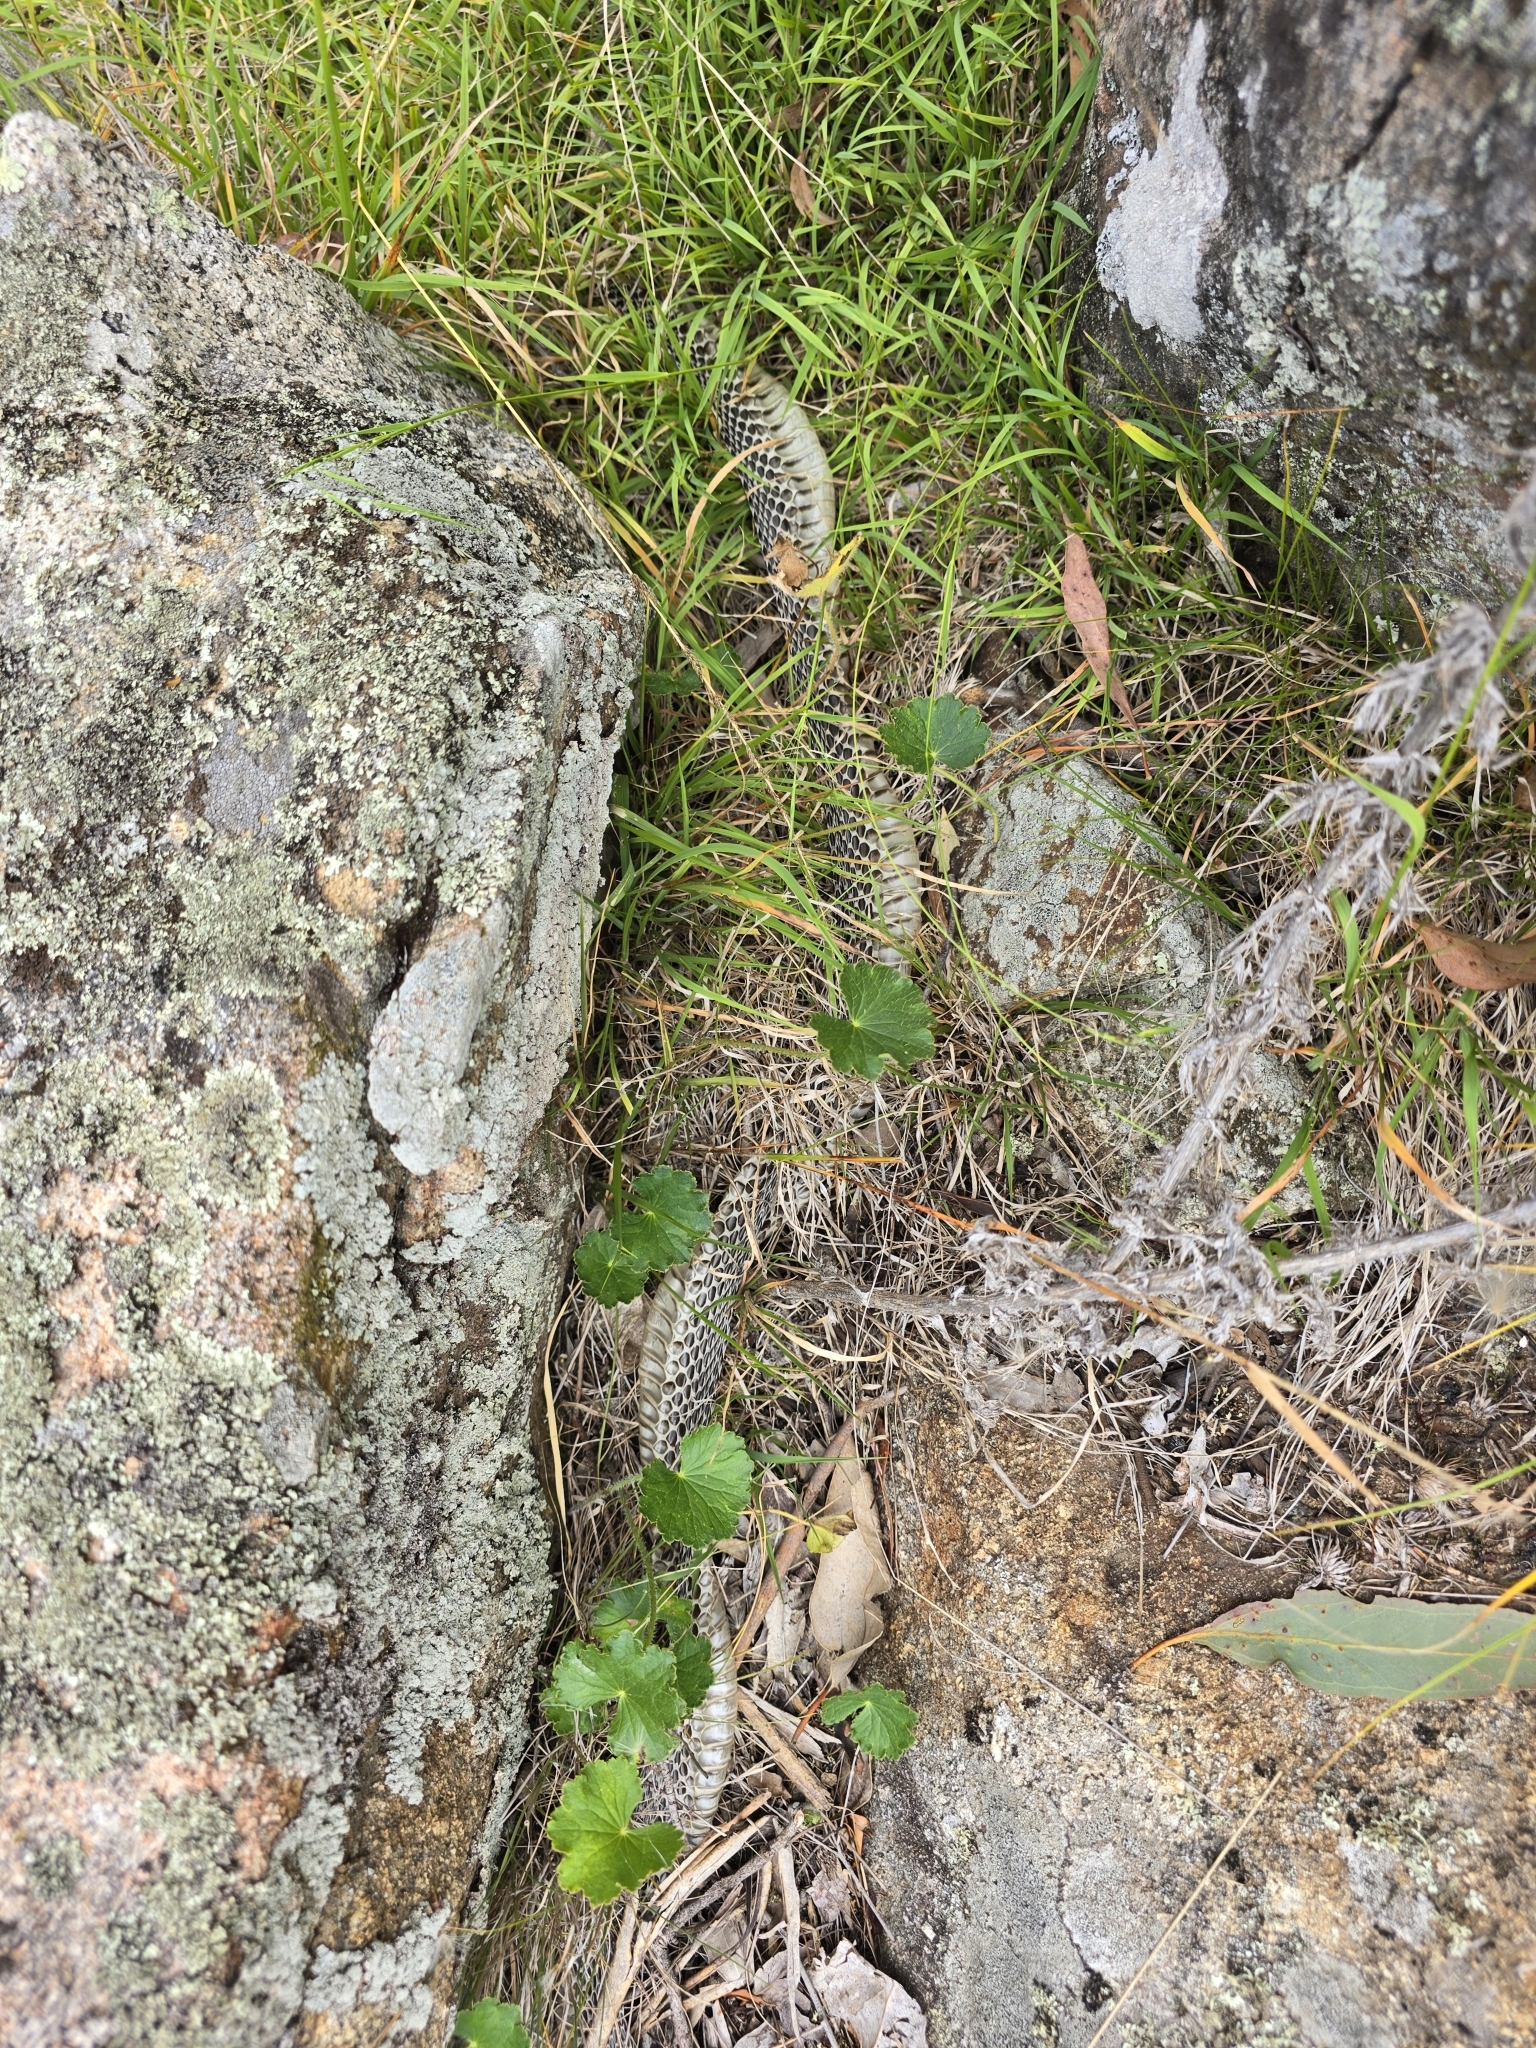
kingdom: Animalia
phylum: Chordata
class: Squamata
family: Elapidae
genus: Pseudechis
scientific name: Pseudechis porphyriacus
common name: Australian black snake
